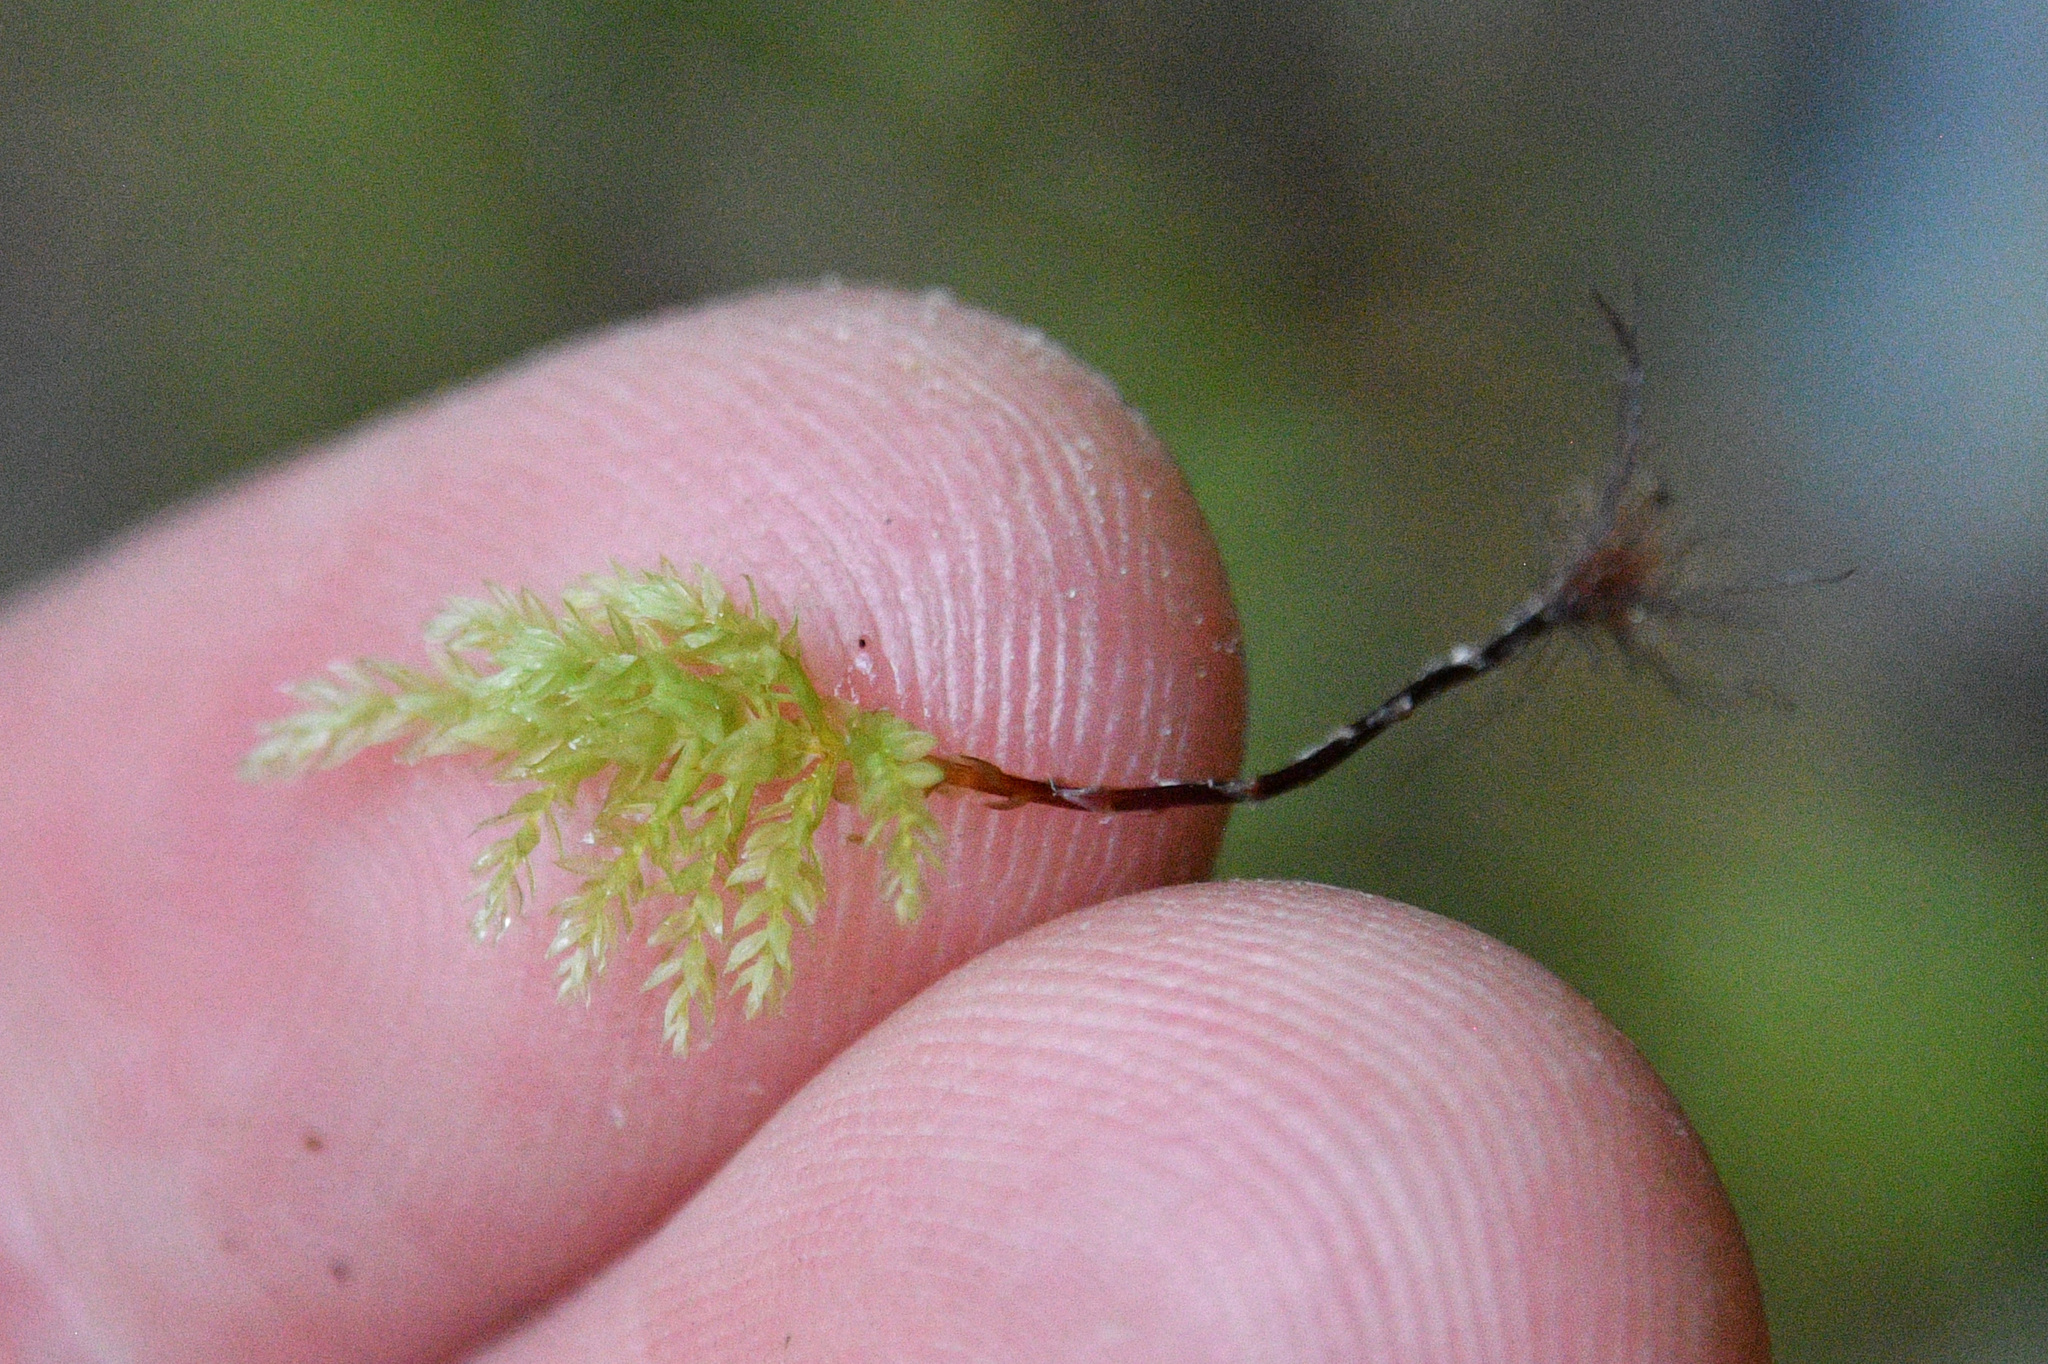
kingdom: Plantae
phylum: Bryophyta
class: Bryopsida
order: Bryales
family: Mniaceae
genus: Leucolepis
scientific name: Leucolepis acanthoneura
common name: Leucolepis umbrella moss
